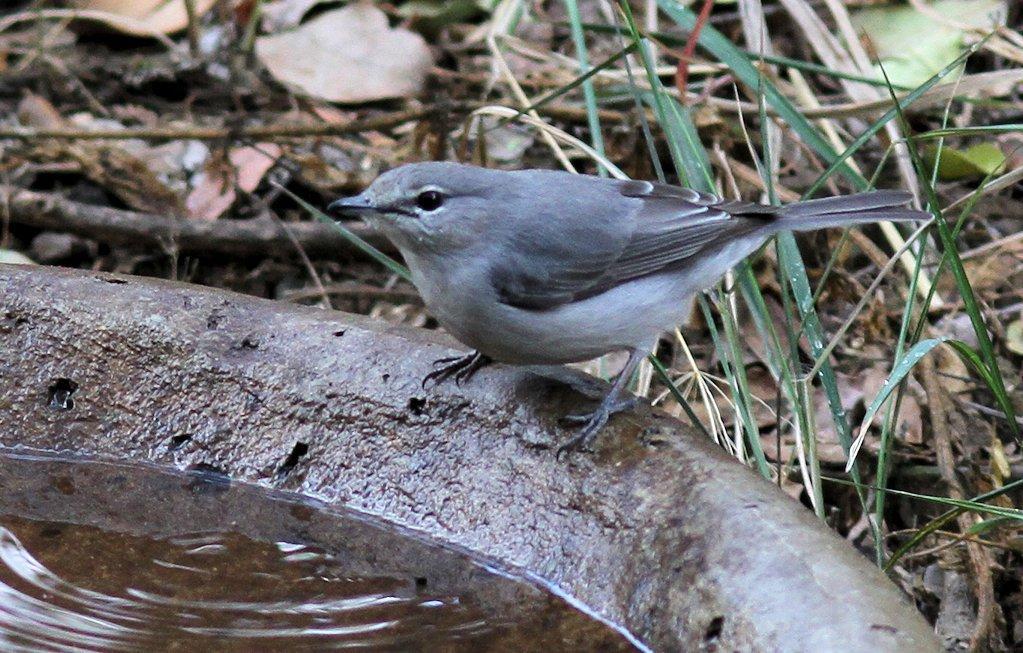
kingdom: Animalia
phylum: Chordata
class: Aves
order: Passeriformes
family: Muscicapidae
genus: Muscicapa
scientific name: Muscicapa caerulescens
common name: Ashy flycatcher
